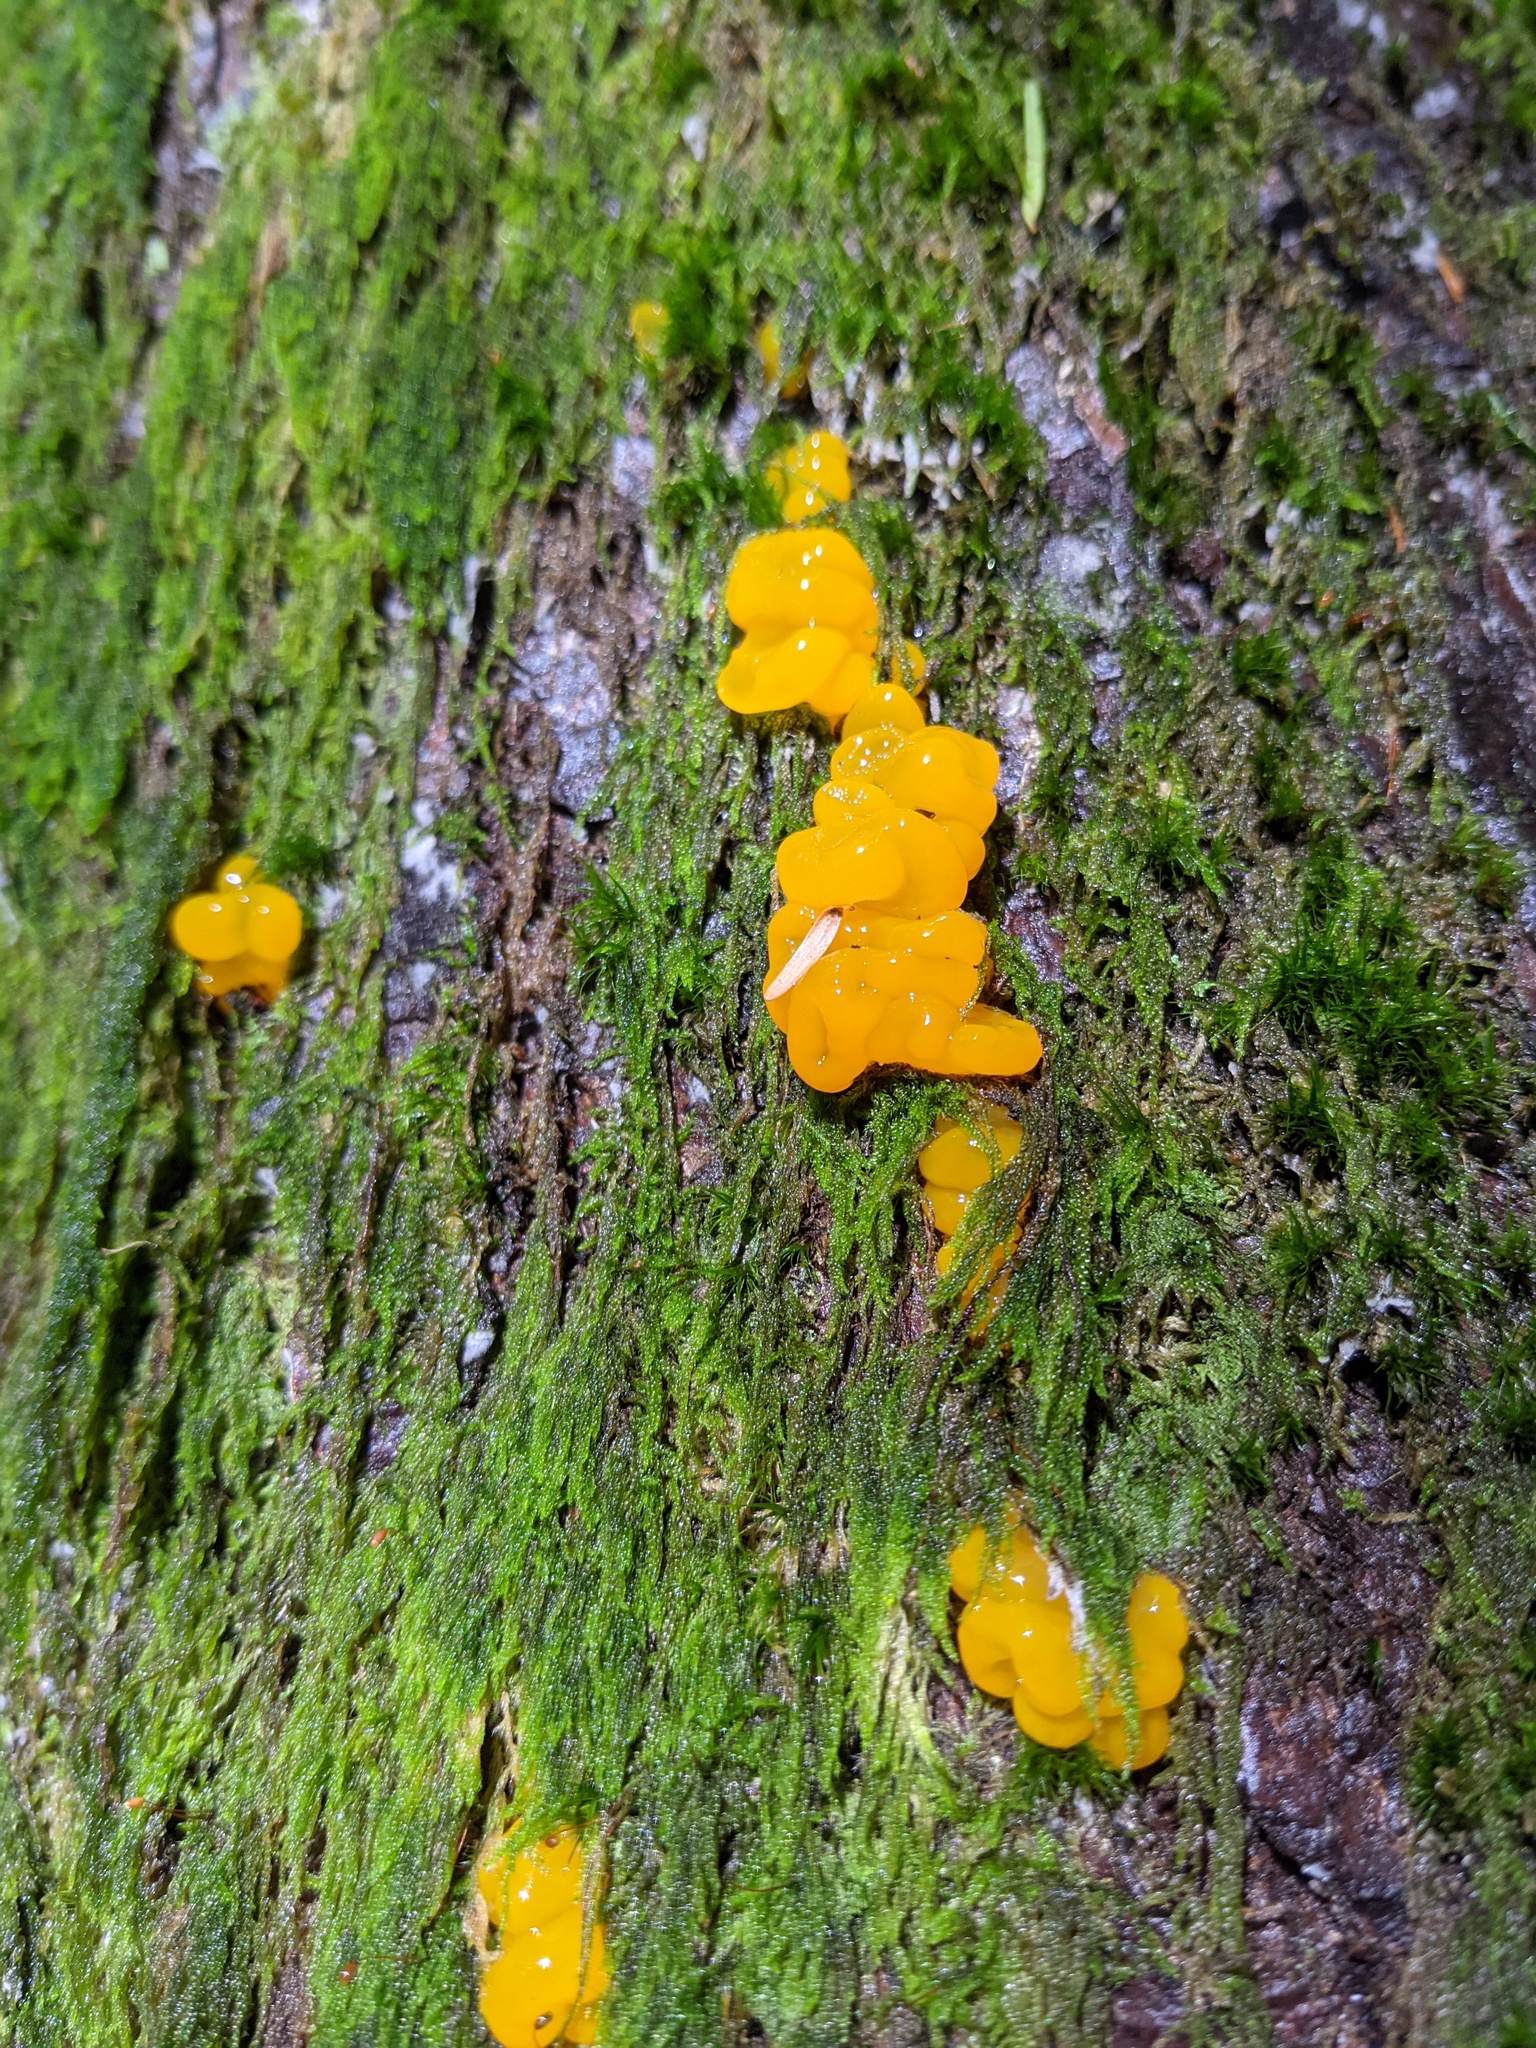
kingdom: Fungi
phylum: Basidiomycota
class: Dacrymycetes
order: Dacrymycetales
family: Dacrymycetaceae
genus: Dacrymyces
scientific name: Dacrymyces chrysospermus
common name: Orange jelly spot
